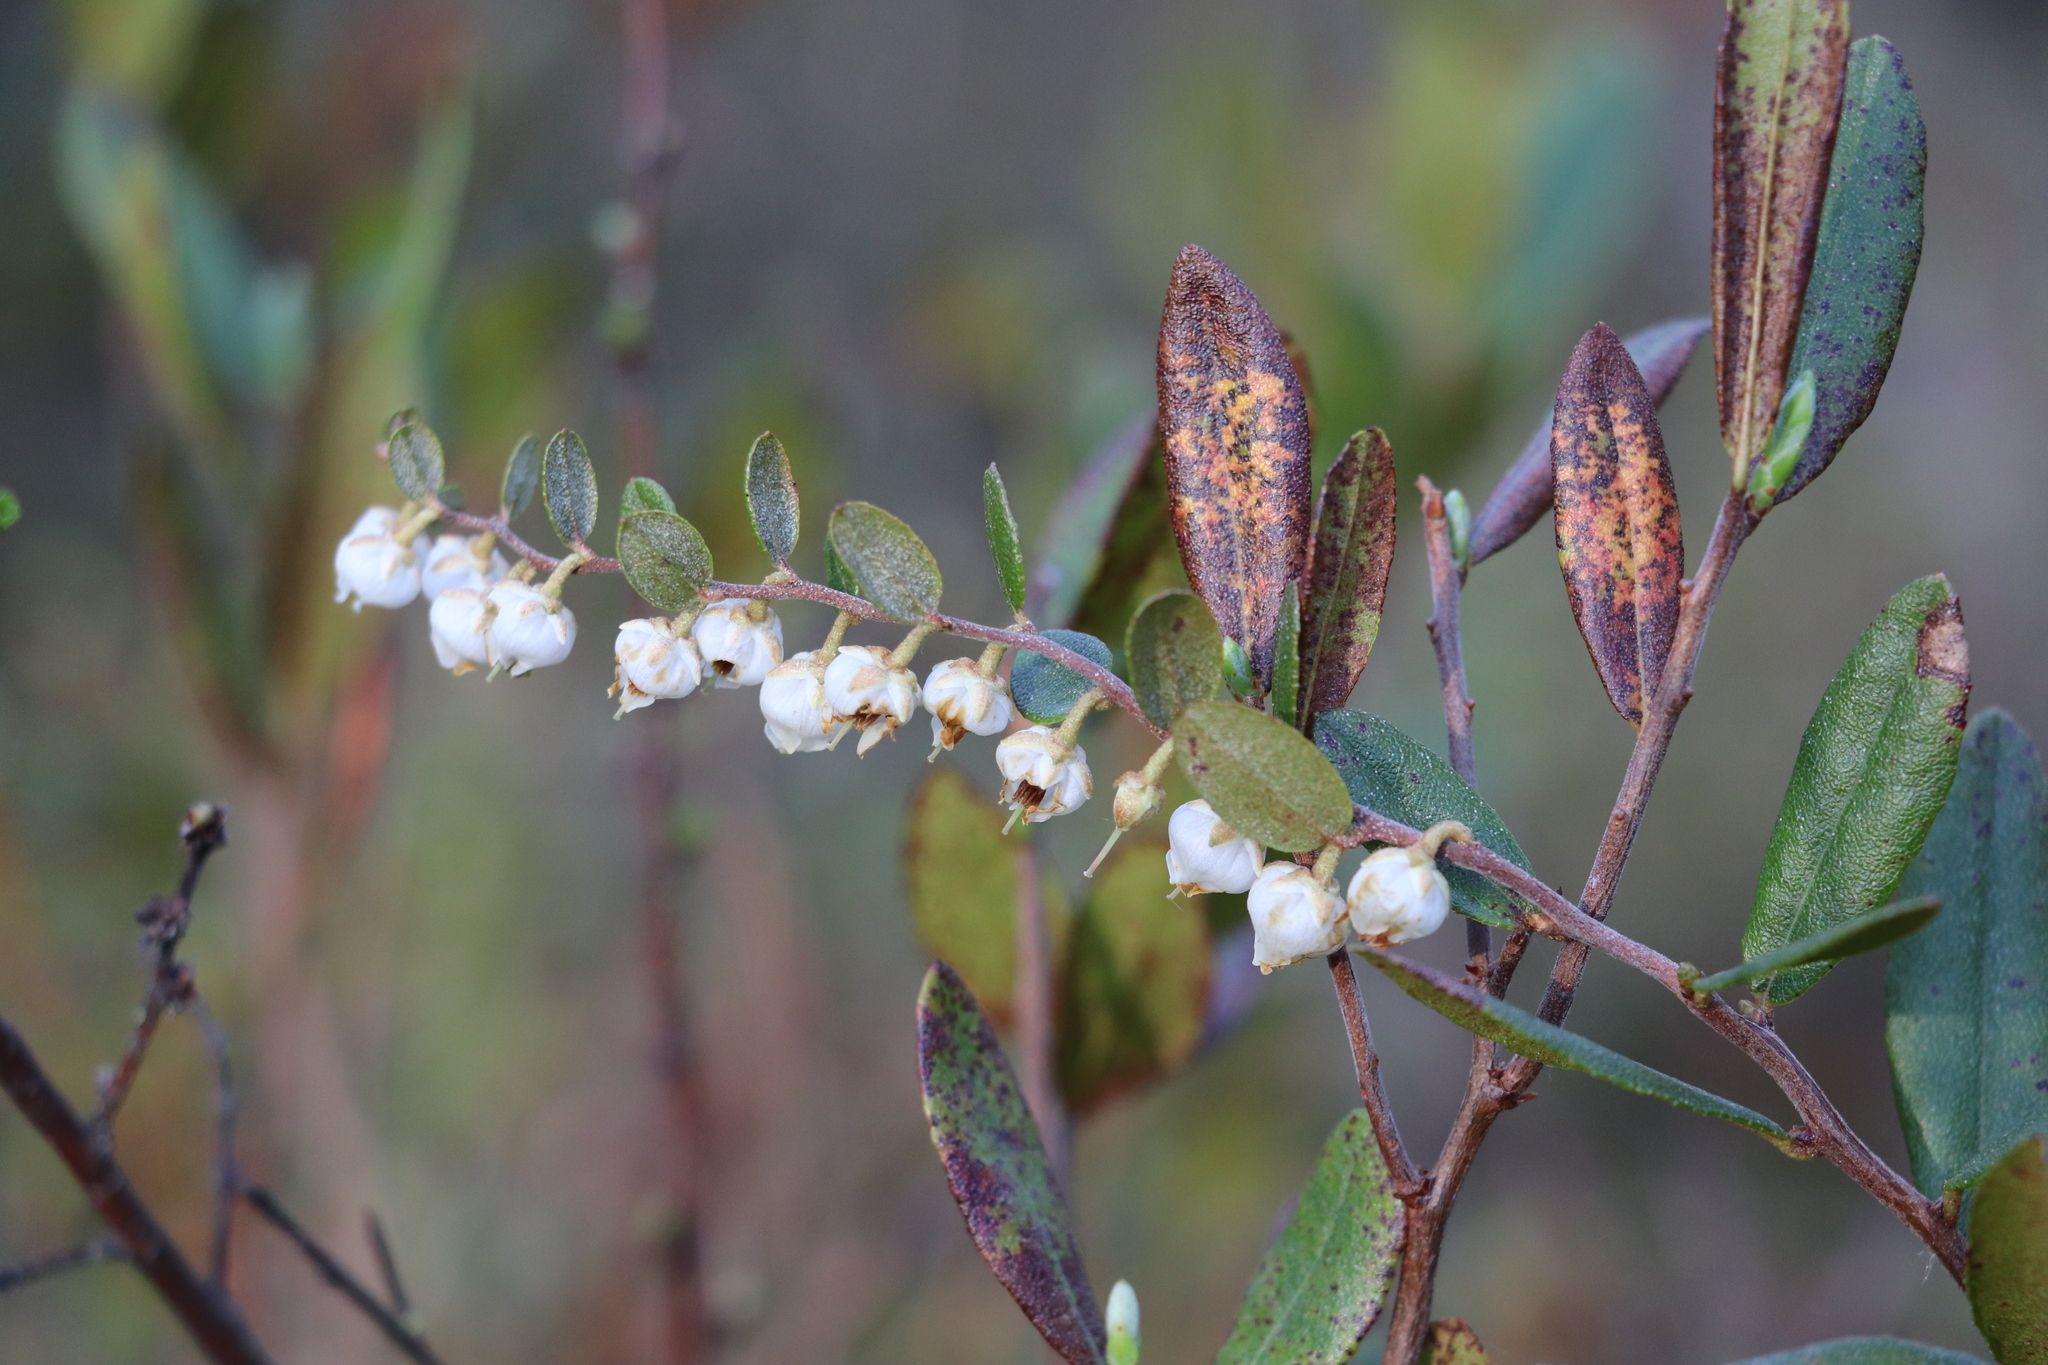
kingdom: Plantae
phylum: Tracheophyta
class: Magnoliopsida
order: Ericales
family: Ericaceae
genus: Chamaedaphne
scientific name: Chamaedaphne calyculata
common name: Leatherleaf
